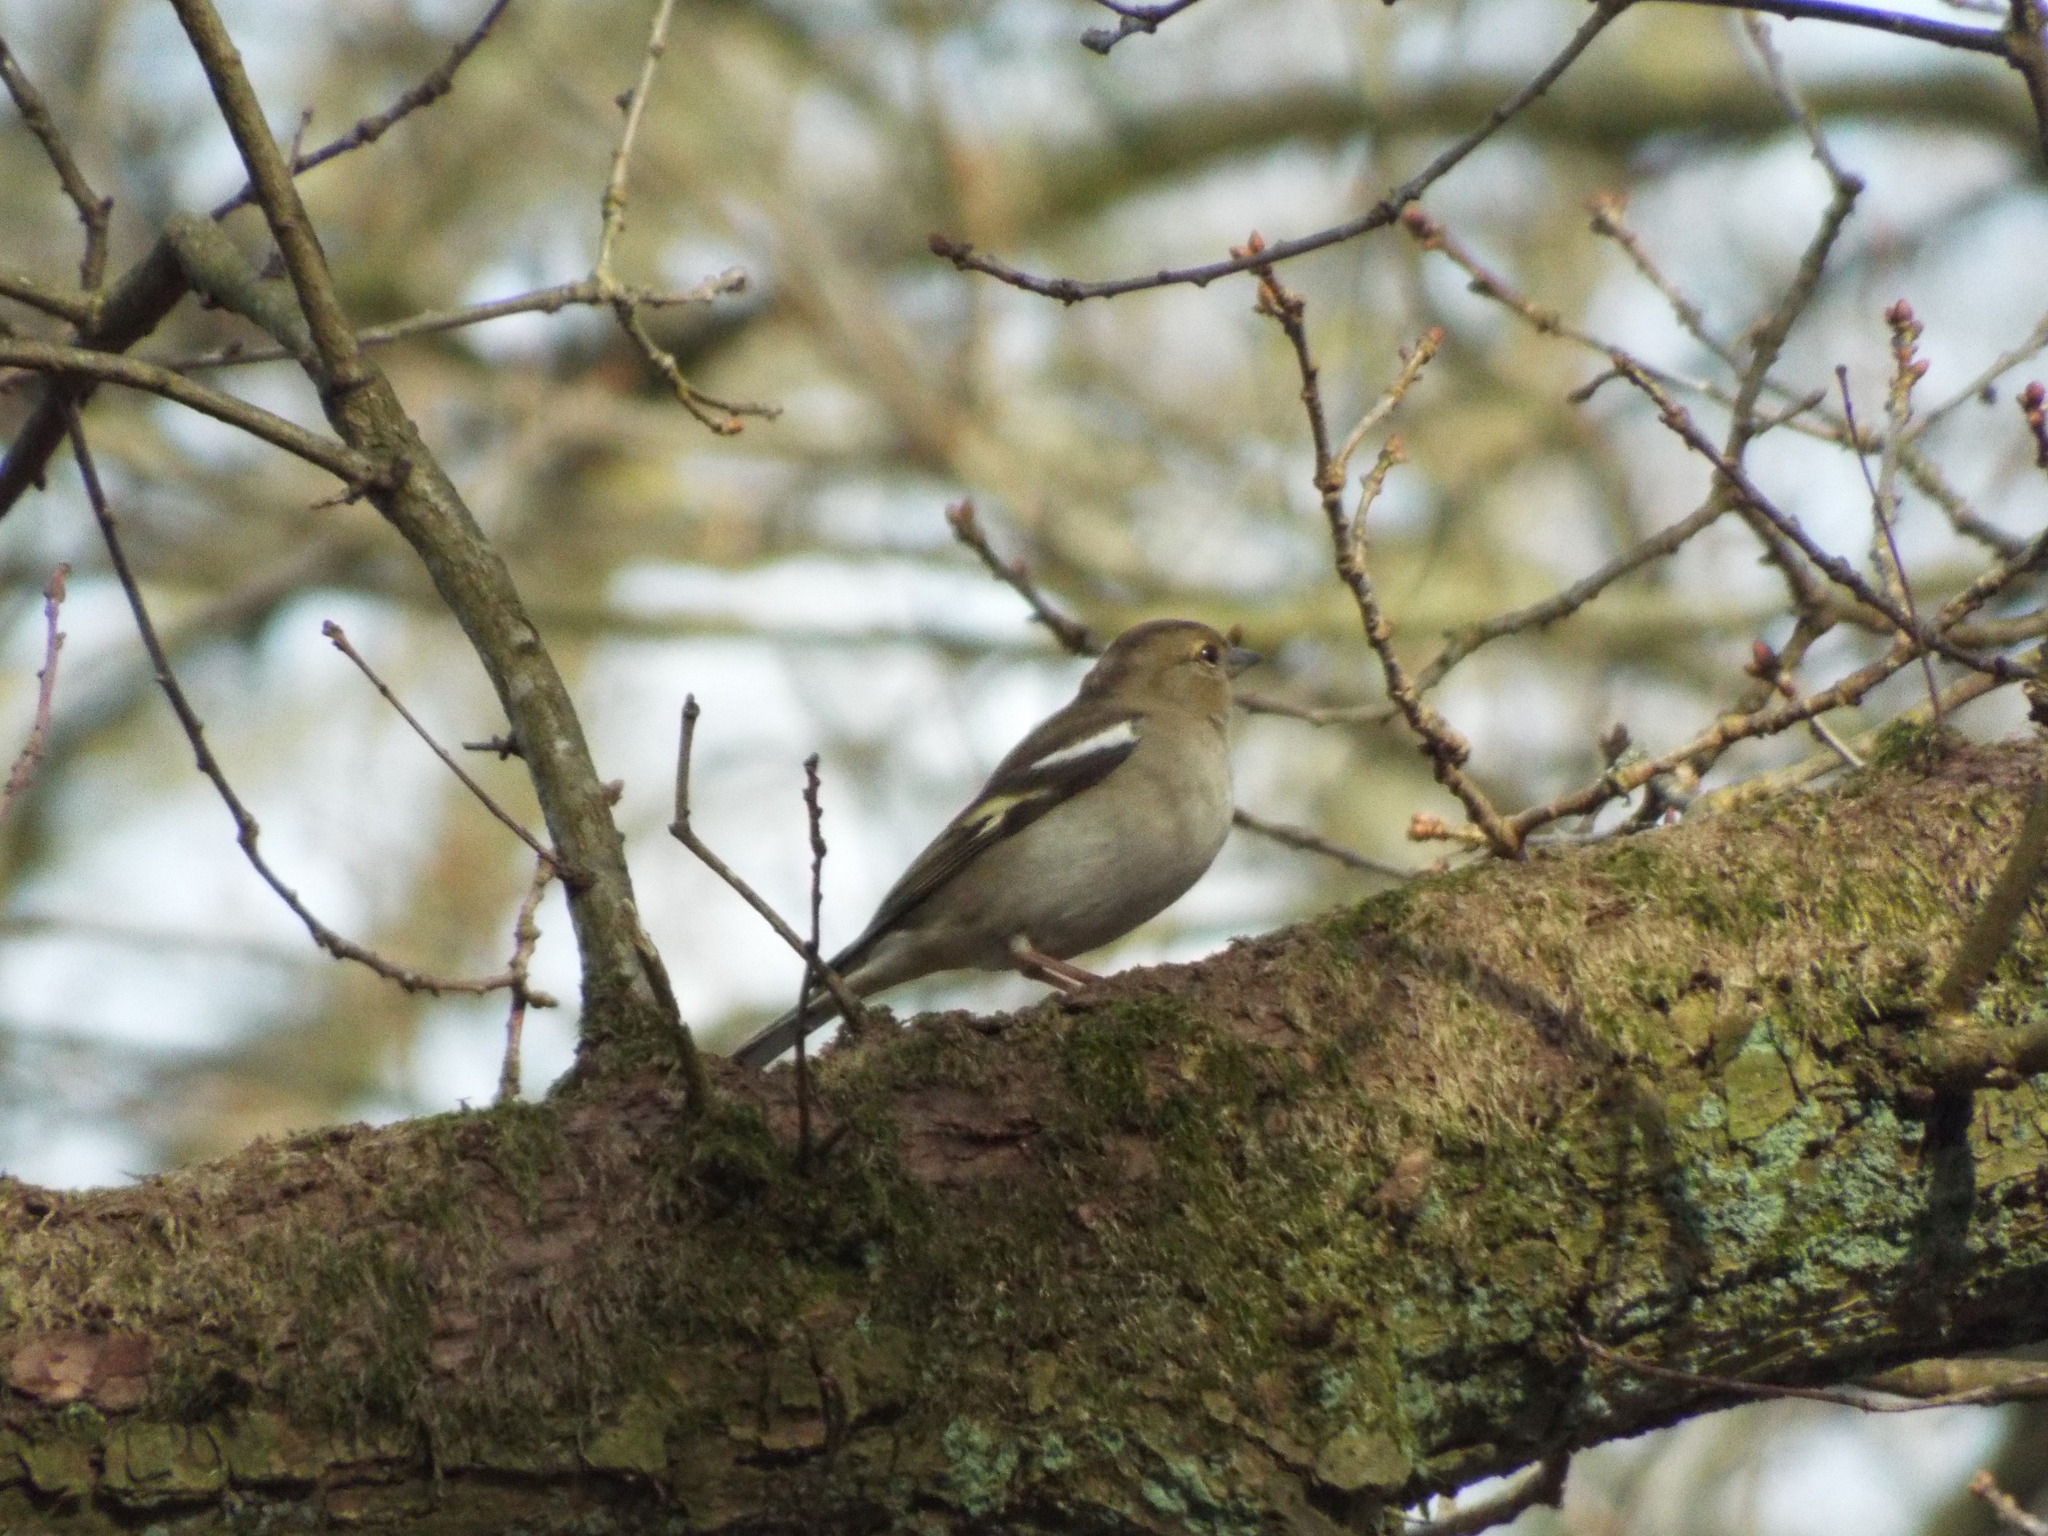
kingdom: Animalia
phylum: Chordata
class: Aves
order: Passeriformes
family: Fringillidae
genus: Fringilla
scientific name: Fringilla coelebs
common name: Common chaffinch
